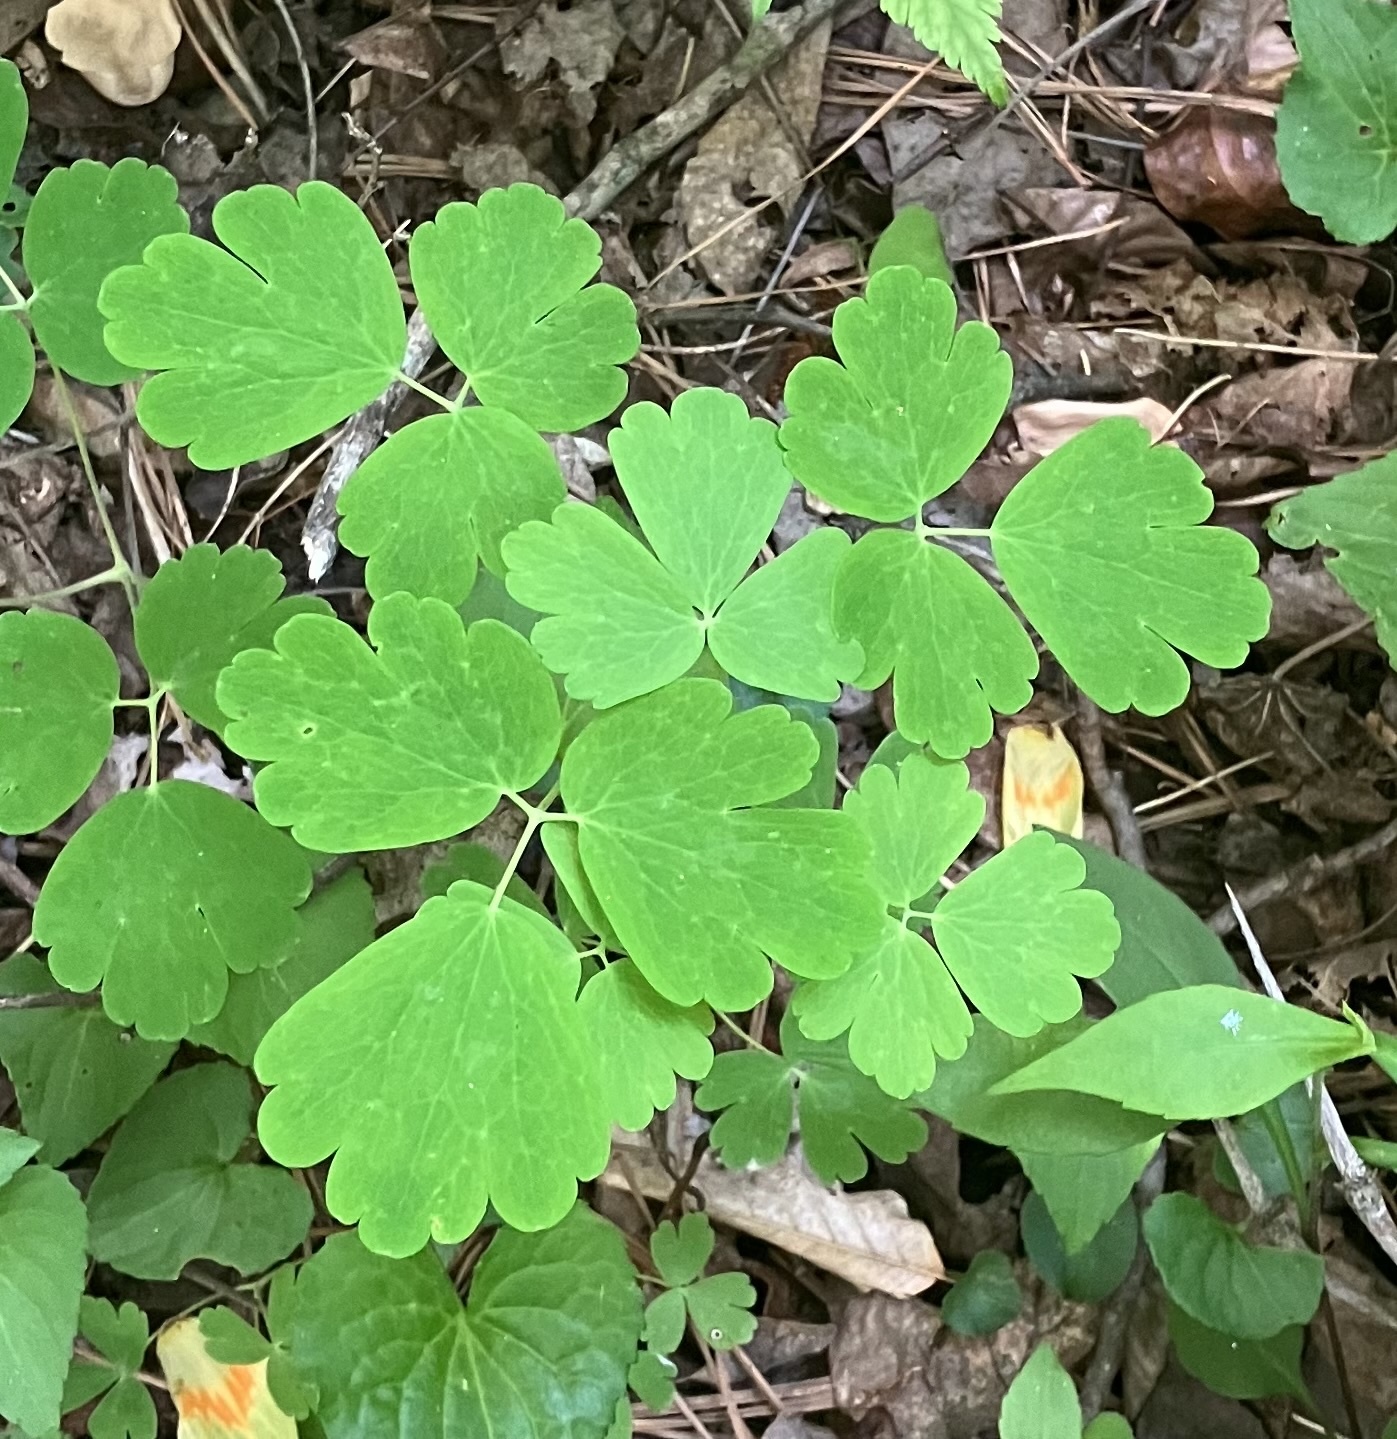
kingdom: Plantae
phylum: Tracheophyta
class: Magnoliopsida
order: Ranunculales
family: Ranunculaceae
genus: Aquilegia
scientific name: Aquilegia canadensis
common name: American columbine
